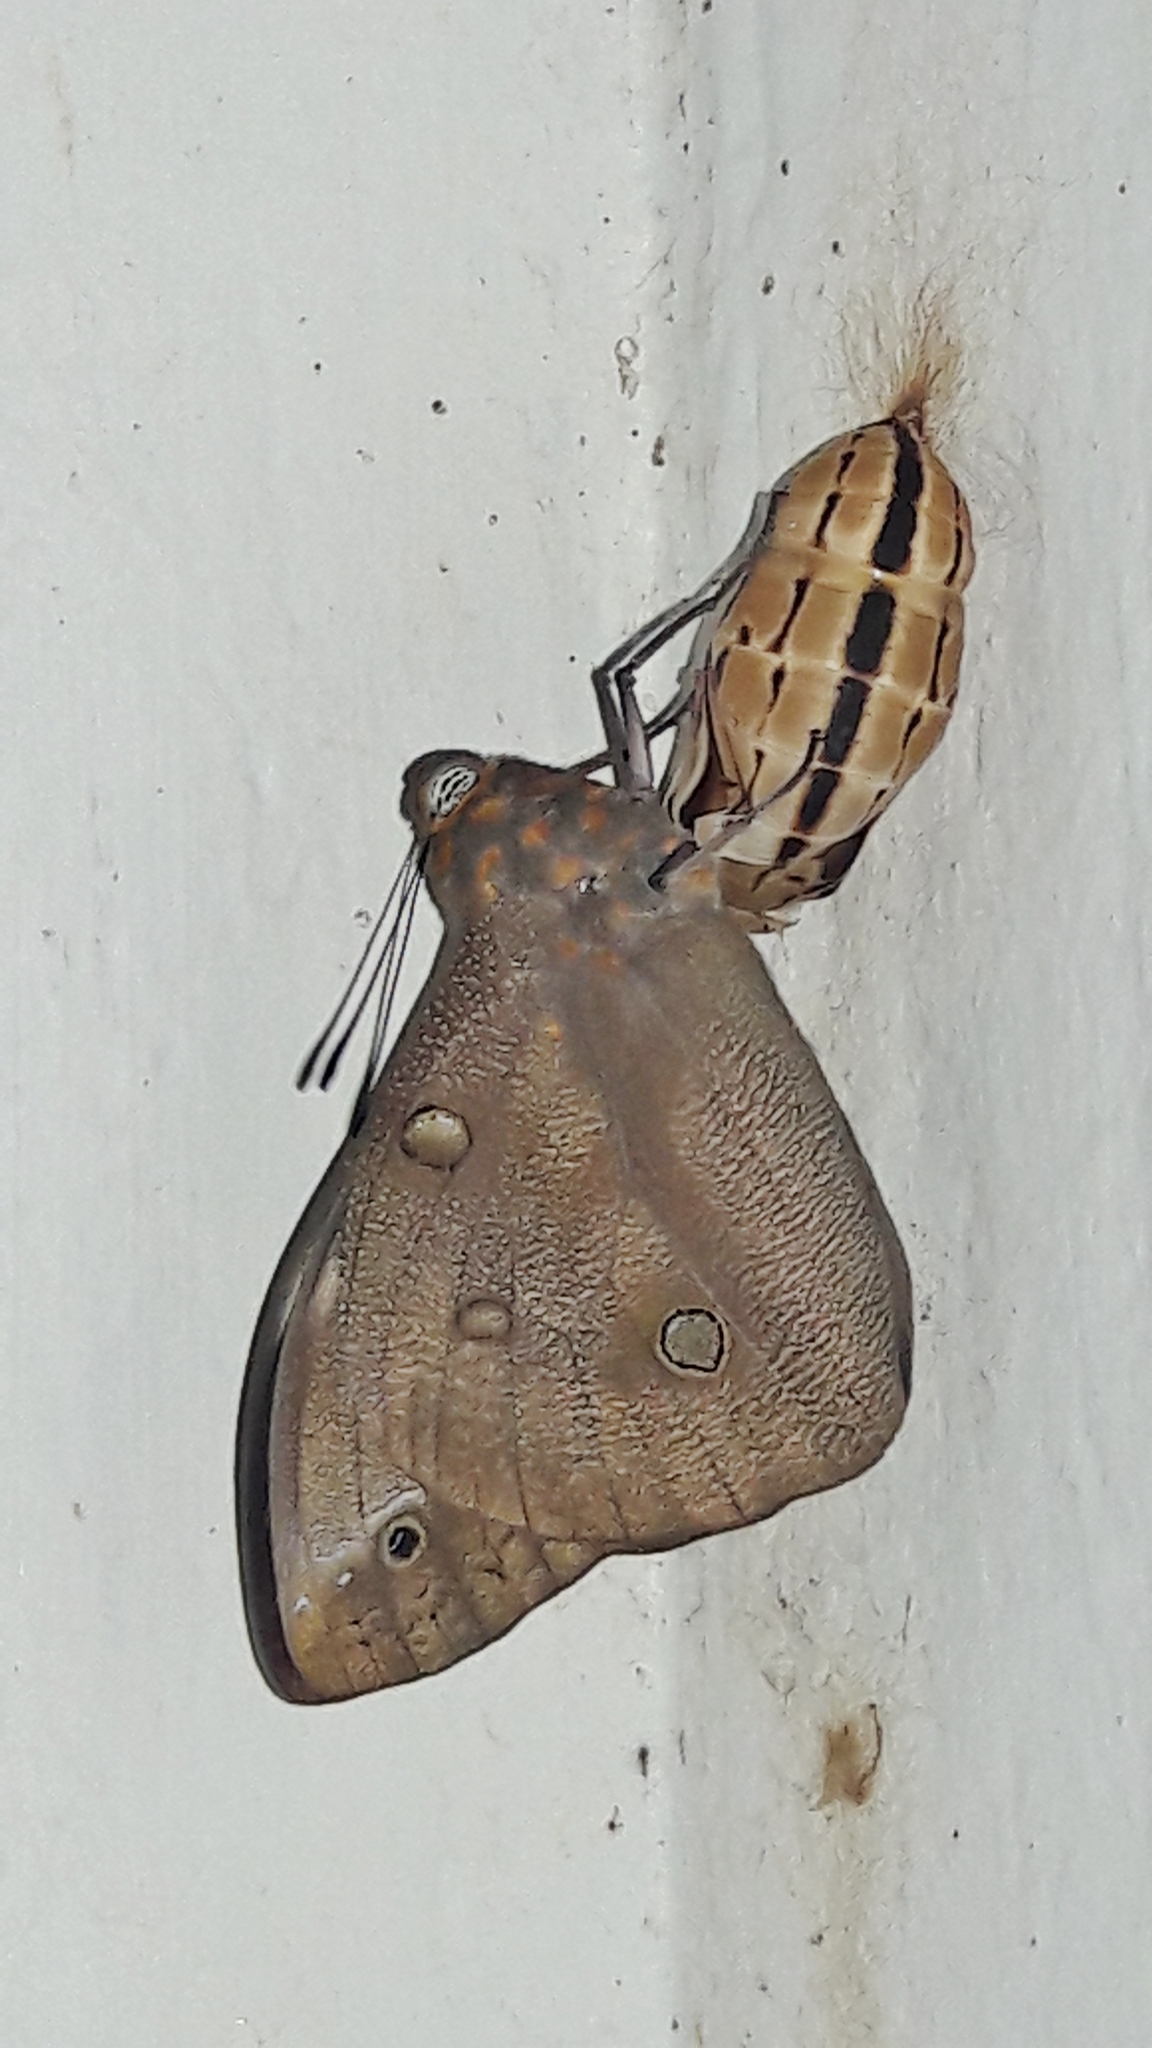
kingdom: Animalia
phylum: Arthropoda
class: Insecta
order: Lepidoptera
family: Nymphalidae
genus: Brassolis
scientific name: Brassolis sophorae
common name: Coconut caterpillar
